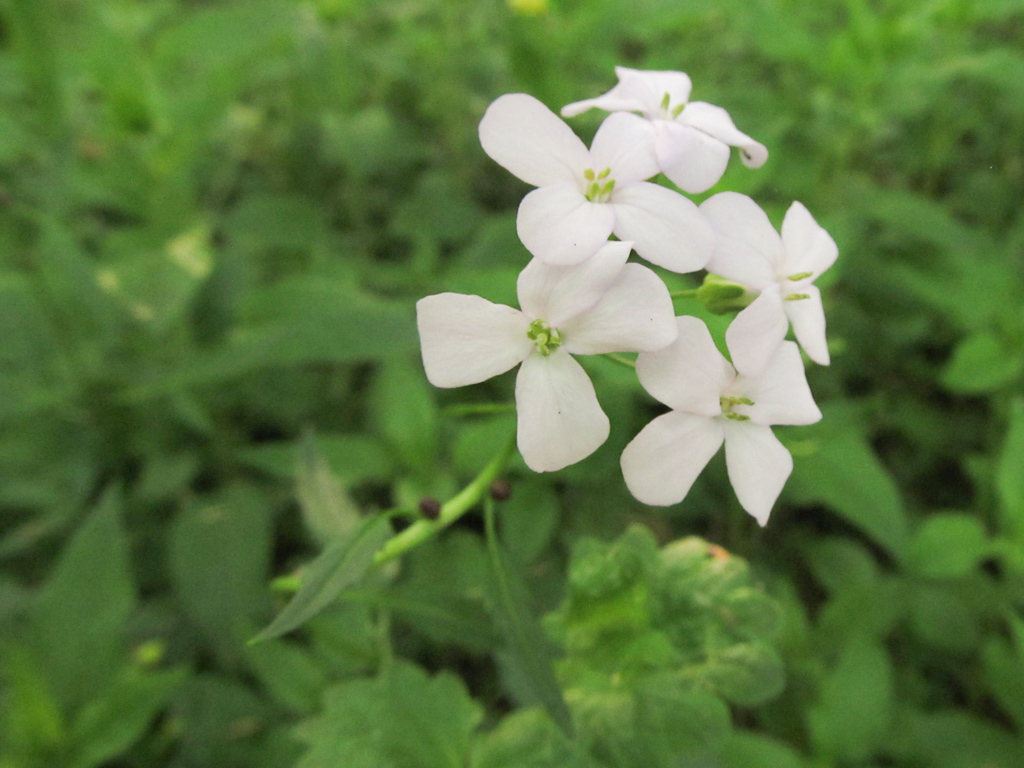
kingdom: Plantae
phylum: Tracheophyta
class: Magnoliopsida
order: Brassicales
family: Brassicaceae
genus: Cardamine
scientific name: Cardamine bulbifera
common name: Coralroot bittercress
